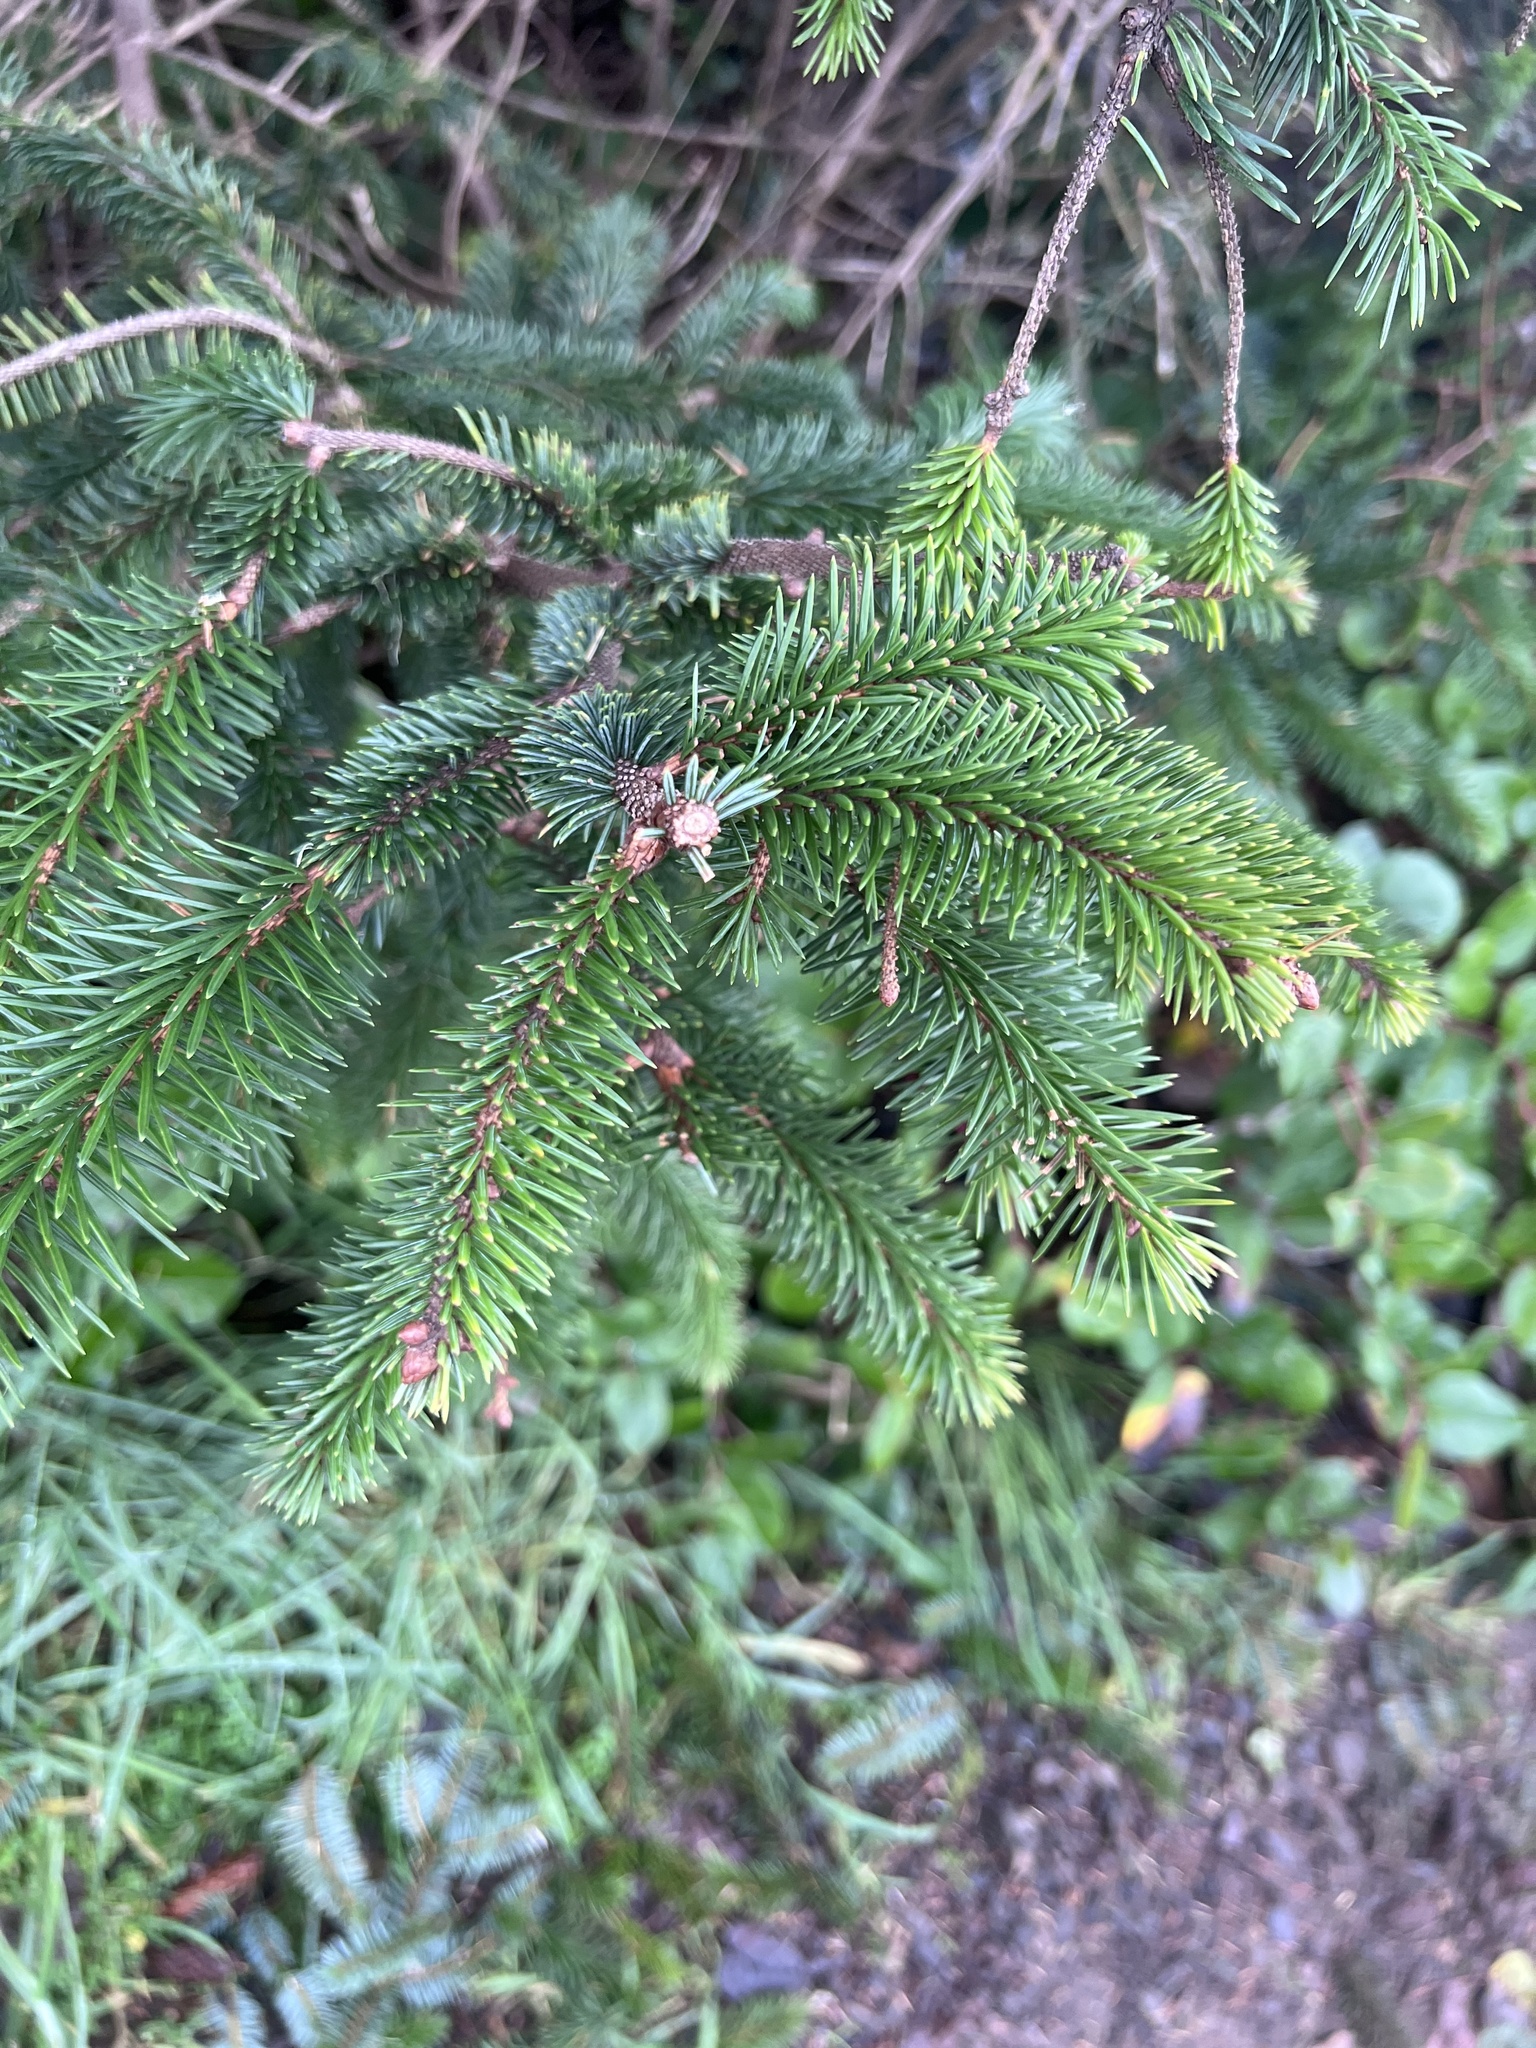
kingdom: Plantae
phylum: Tracheophyta
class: Pinopsida
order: Pinales
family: Pinaceae
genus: Picea
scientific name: Picea sitchensis
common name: Sitka spruce
